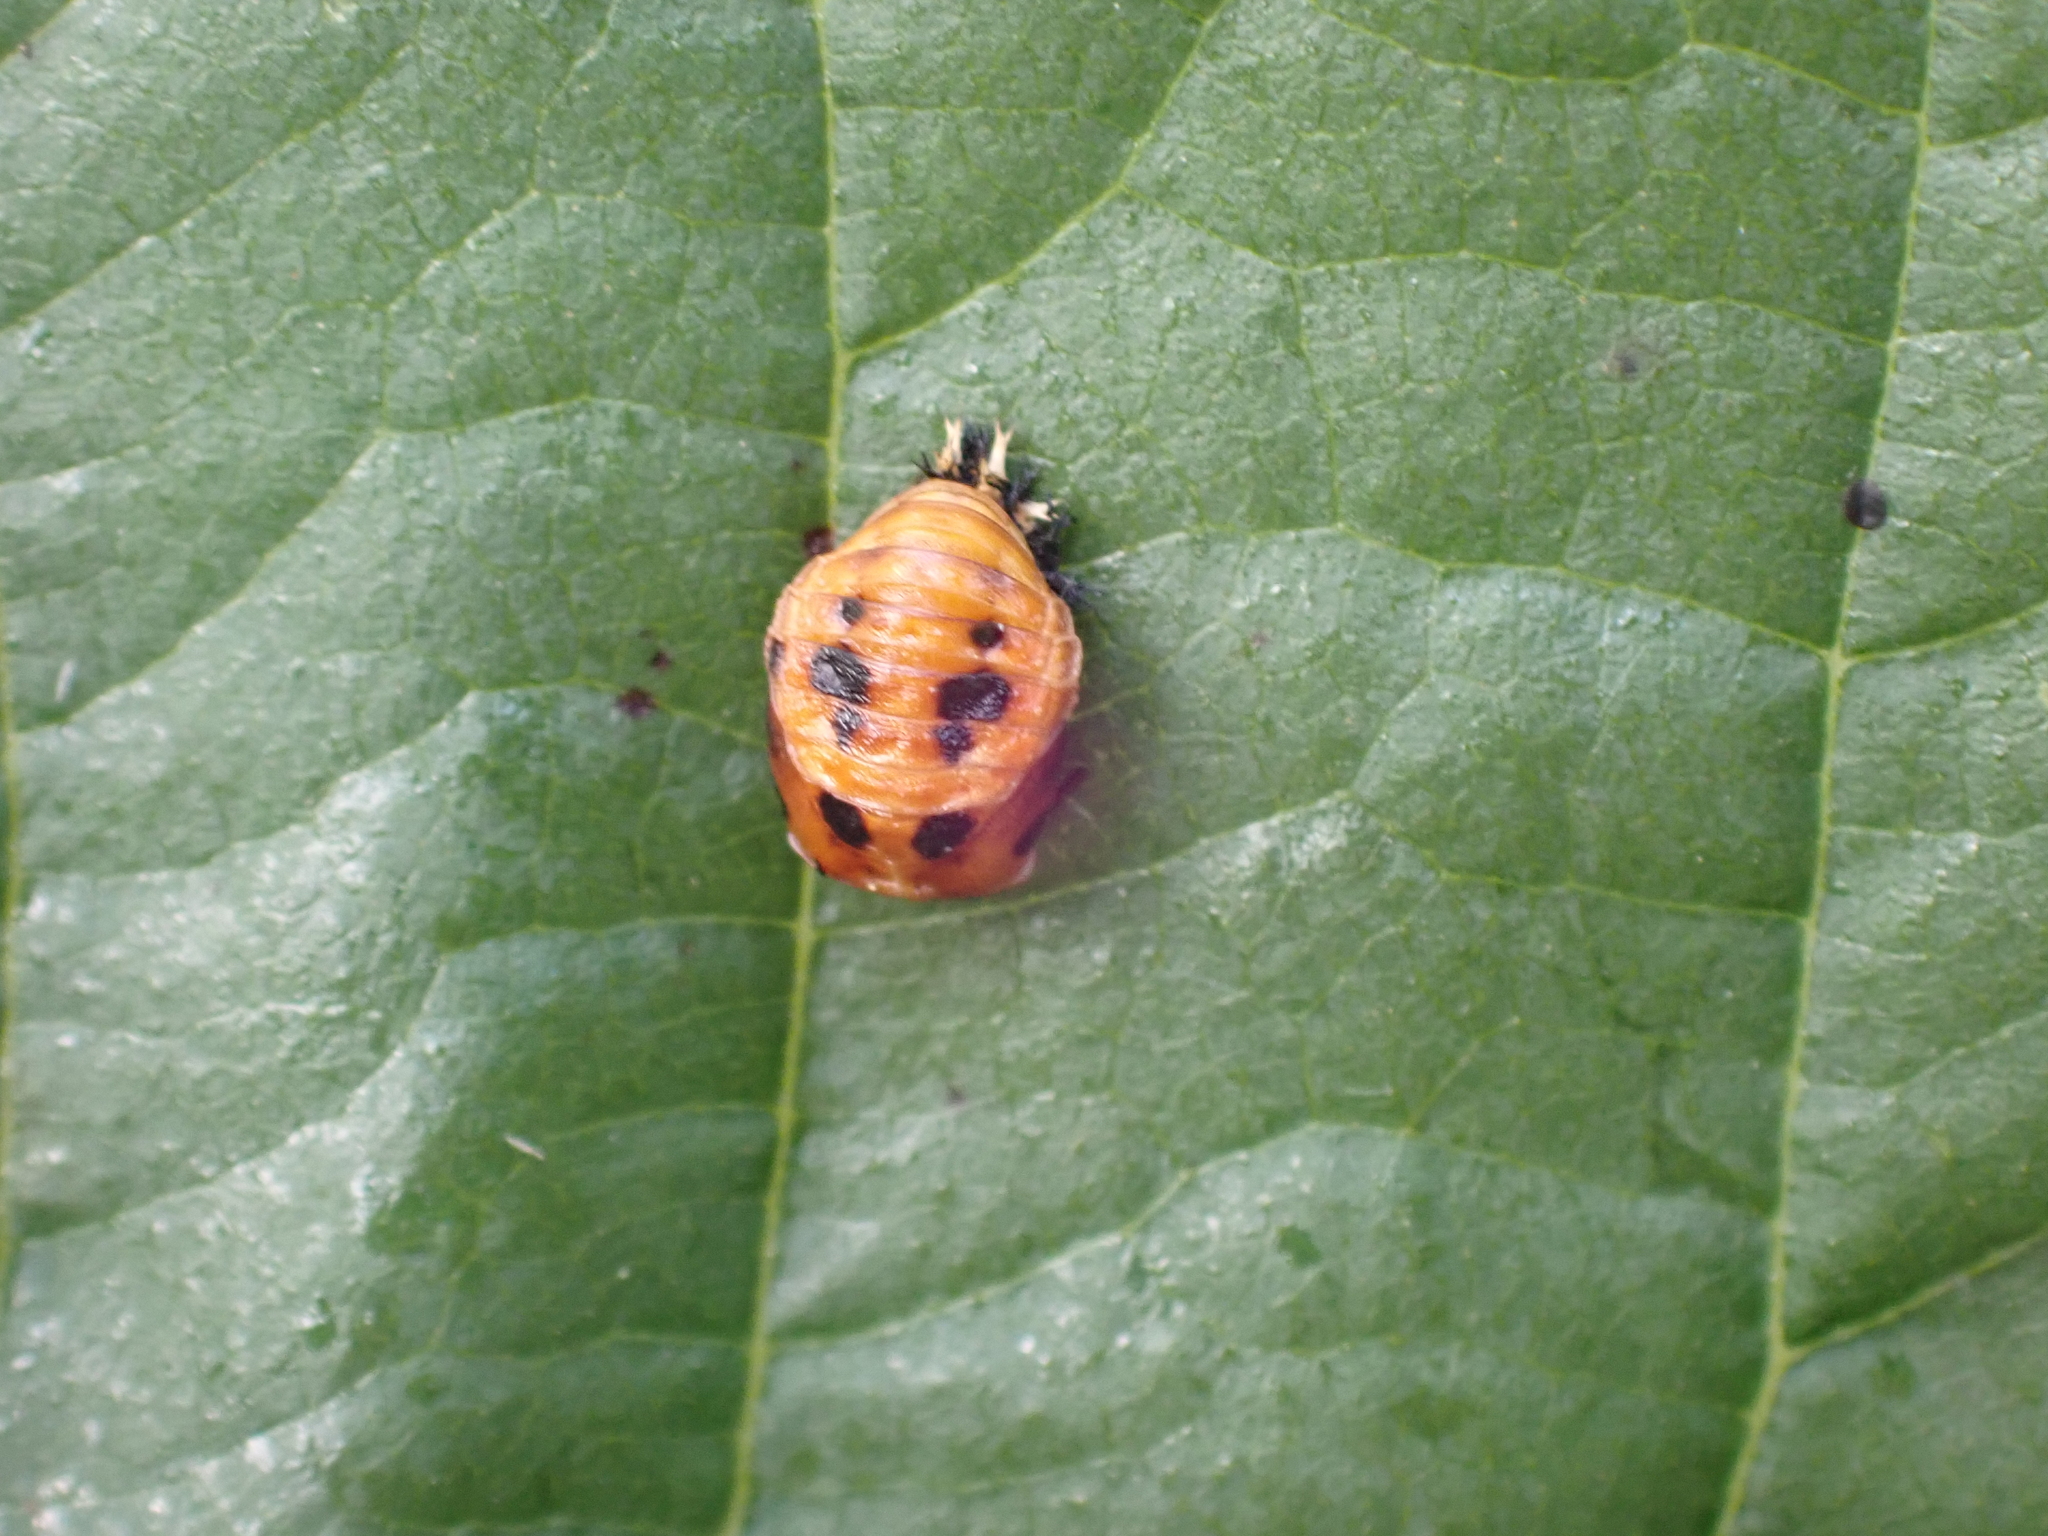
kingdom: Animalia
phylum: Arthropoda
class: Insecta
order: Coleoptera
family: Coccinellidae
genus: Harmonia
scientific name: Harmonia axyridis
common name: Harlequin ladybird
